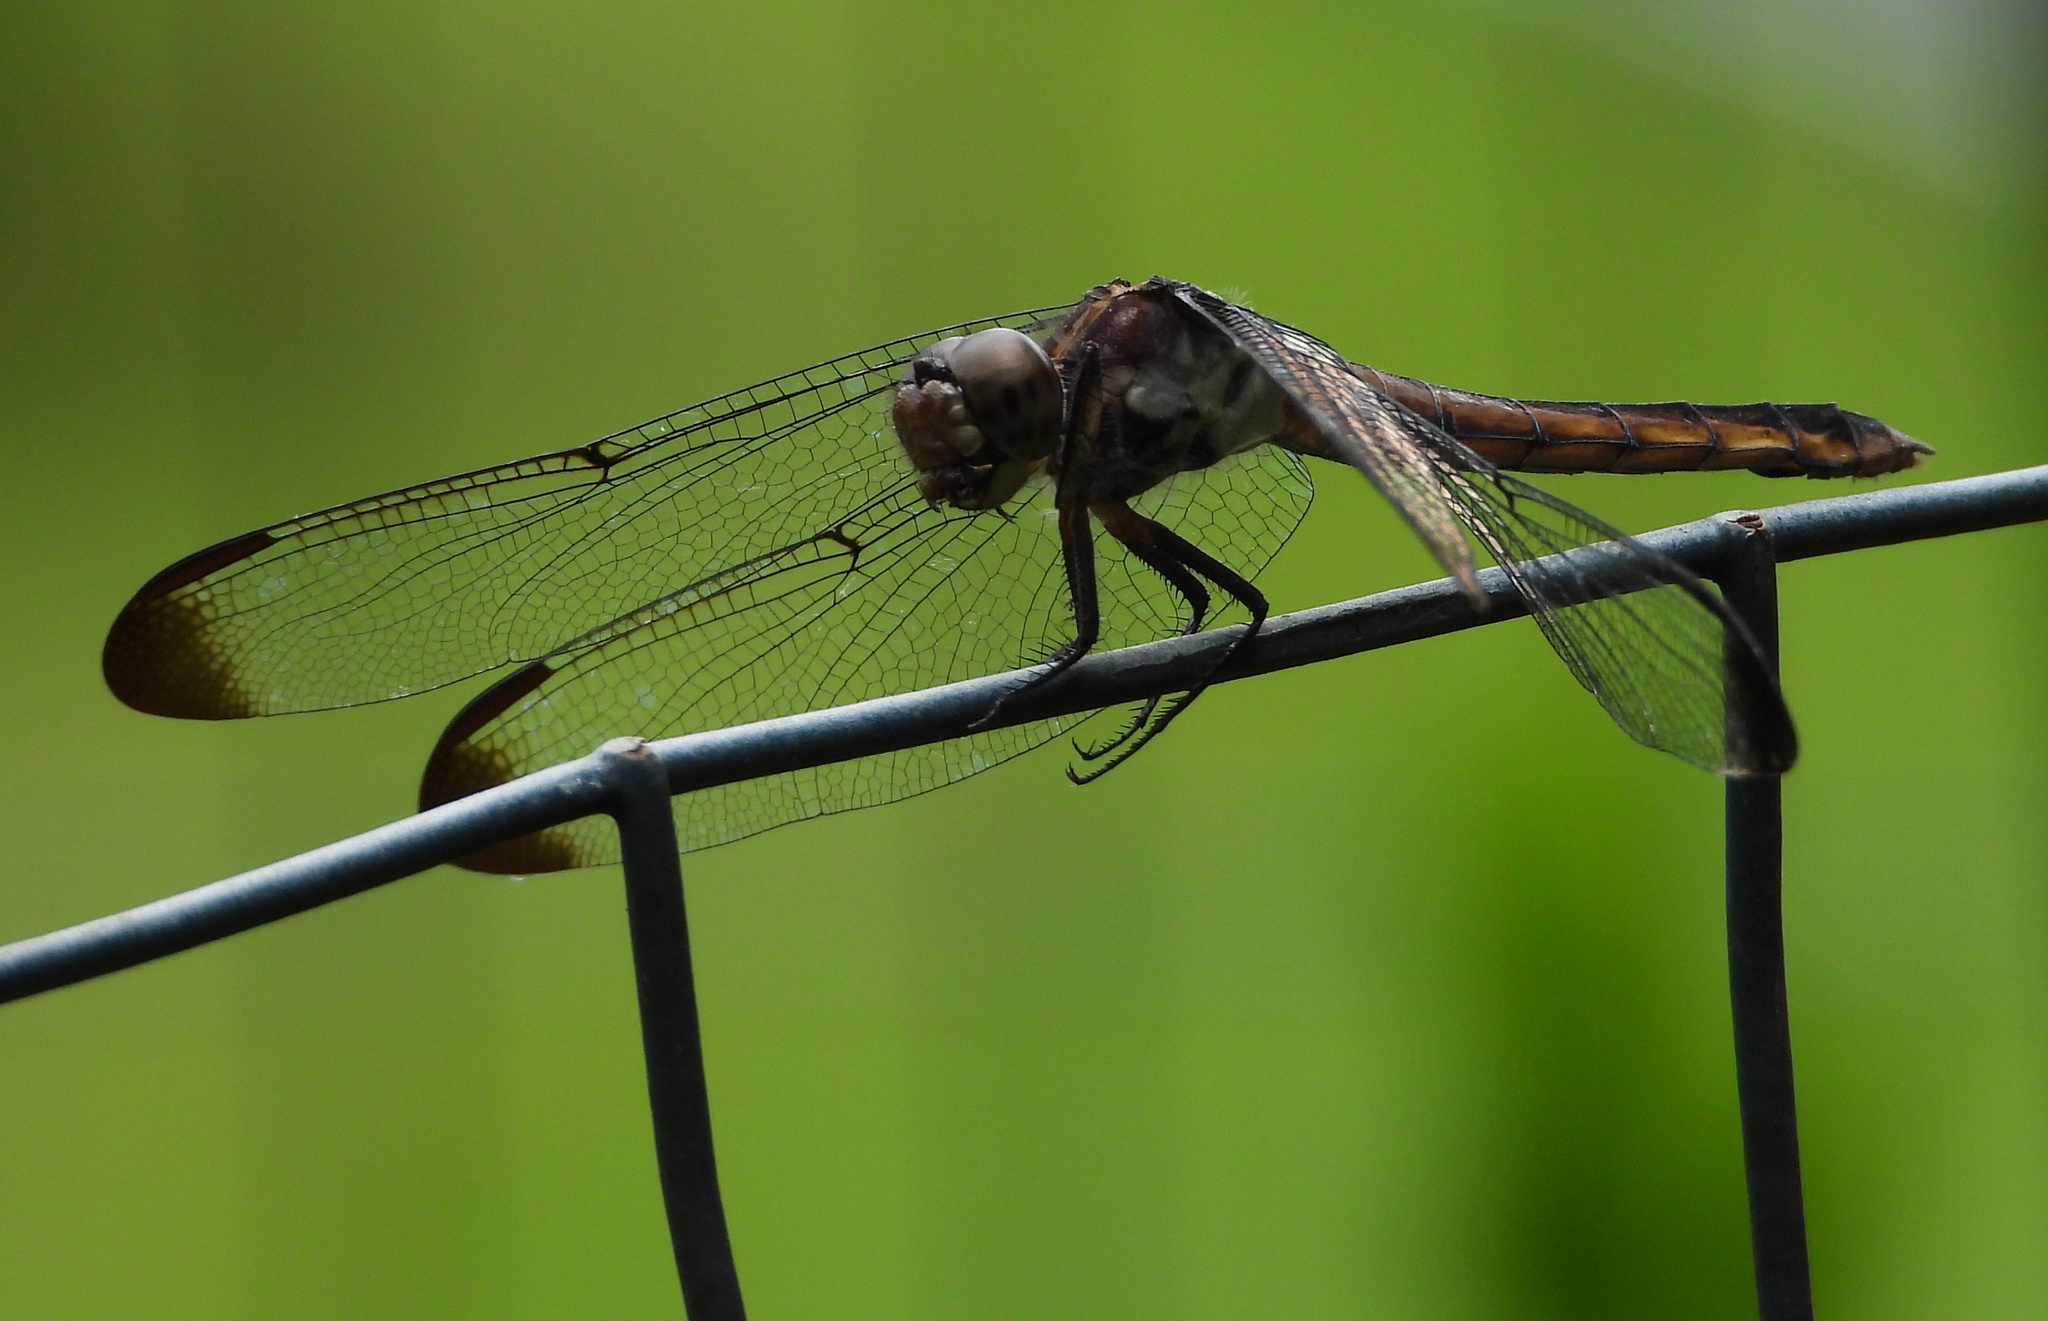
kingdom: Animalia
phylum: Arthropoda
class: Insecta
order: Odonata
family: Libellulidae
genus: Libellula
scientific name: Libellula incesta
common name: Slaty skimmer
